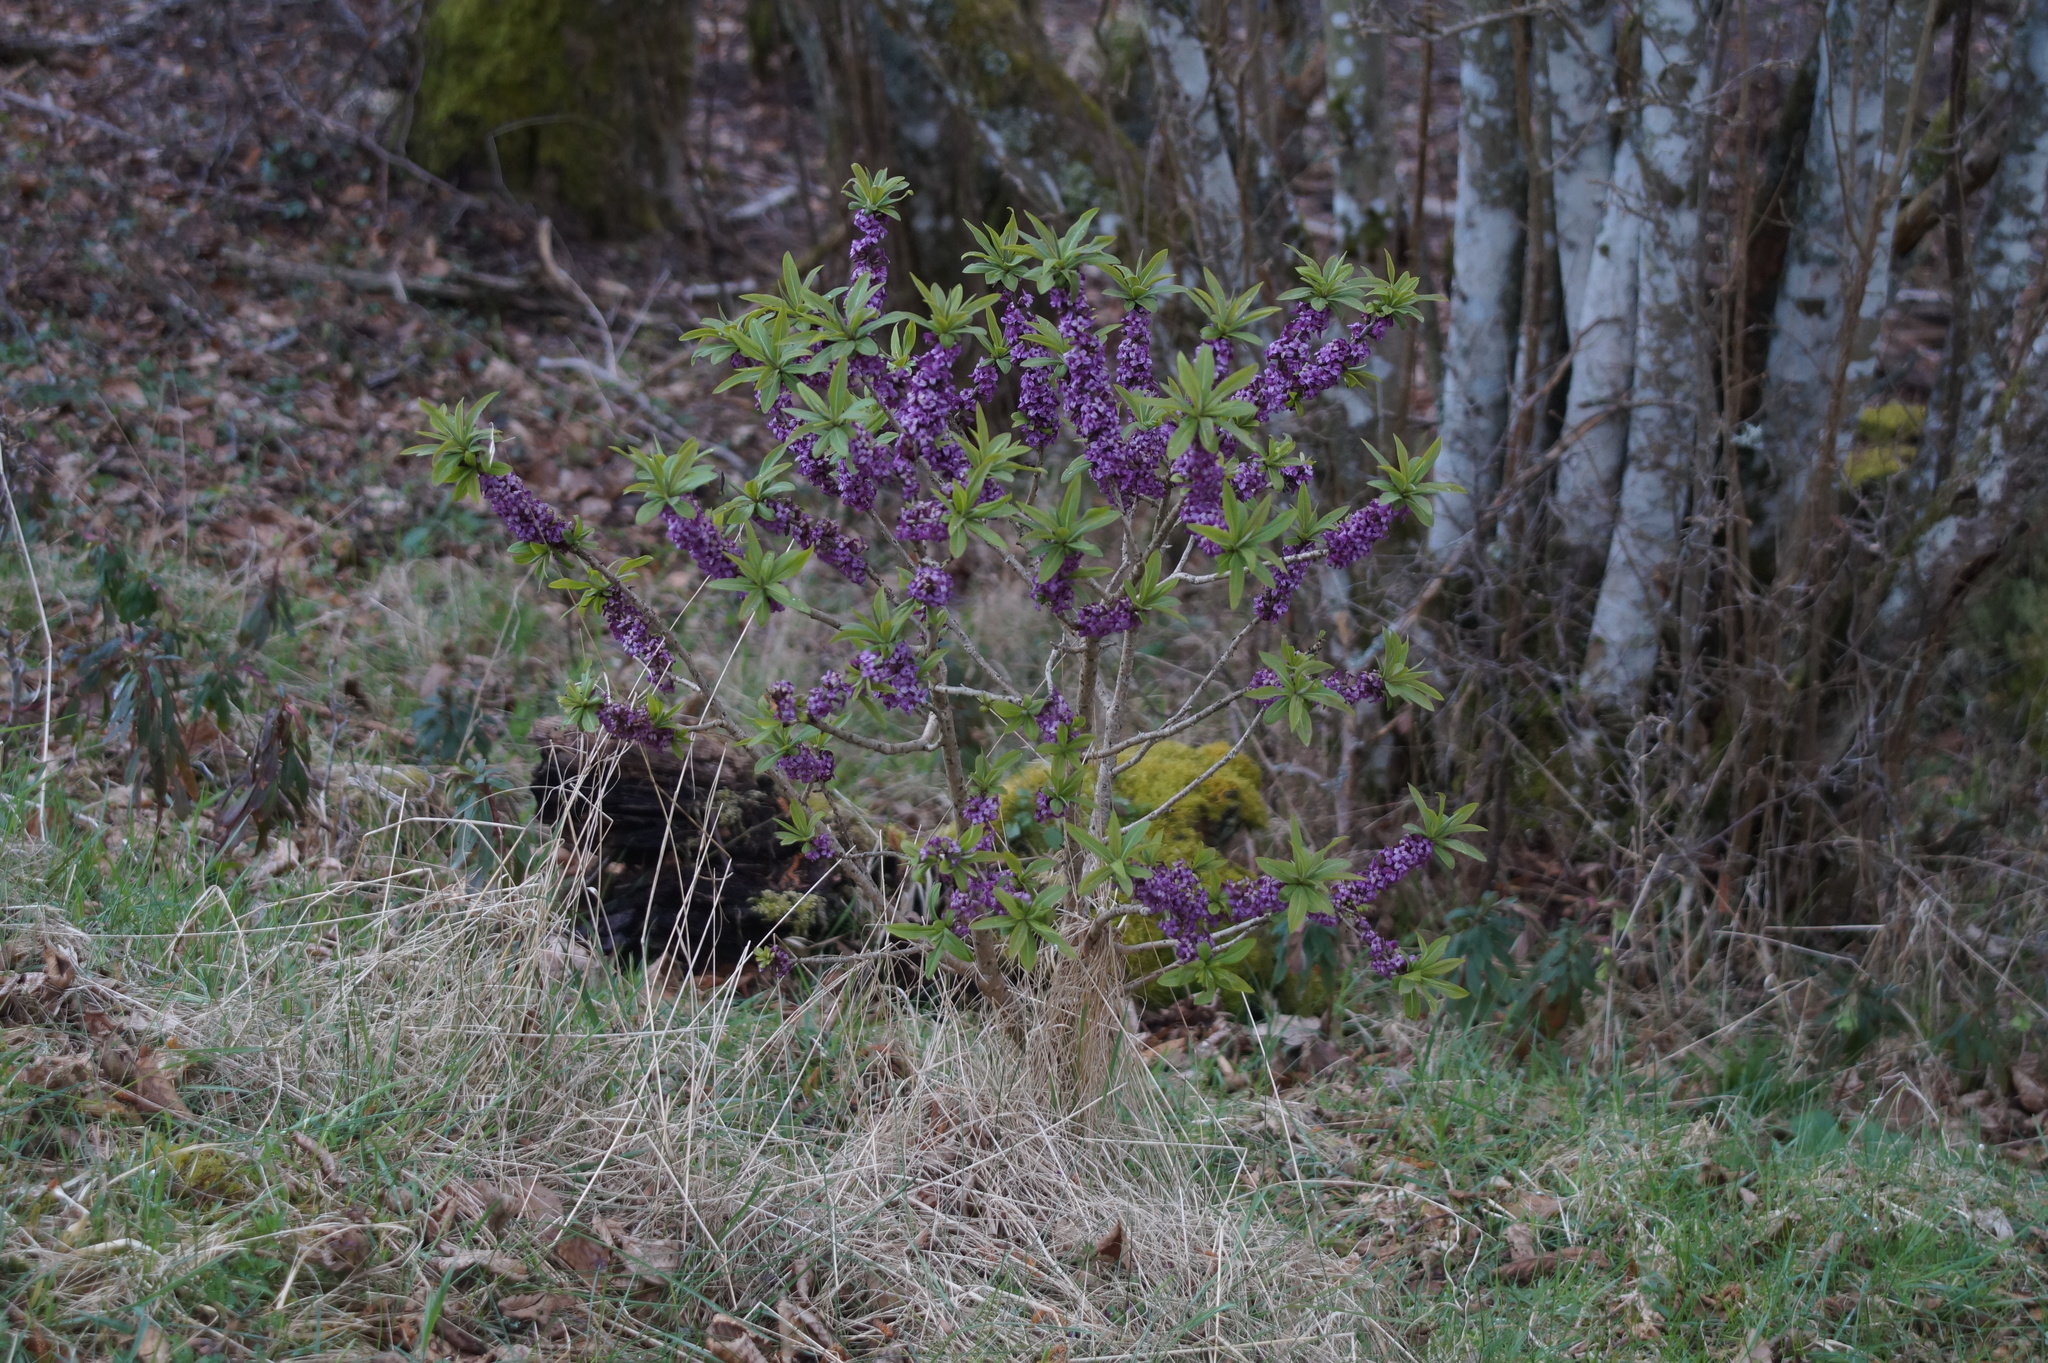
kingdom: Plantae
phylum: Tracheophyta
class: Magnoliopsida
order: Malvales
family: Thymelaeaceae
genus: Daphne
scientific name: Daphne mezereum
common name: Mezereon
